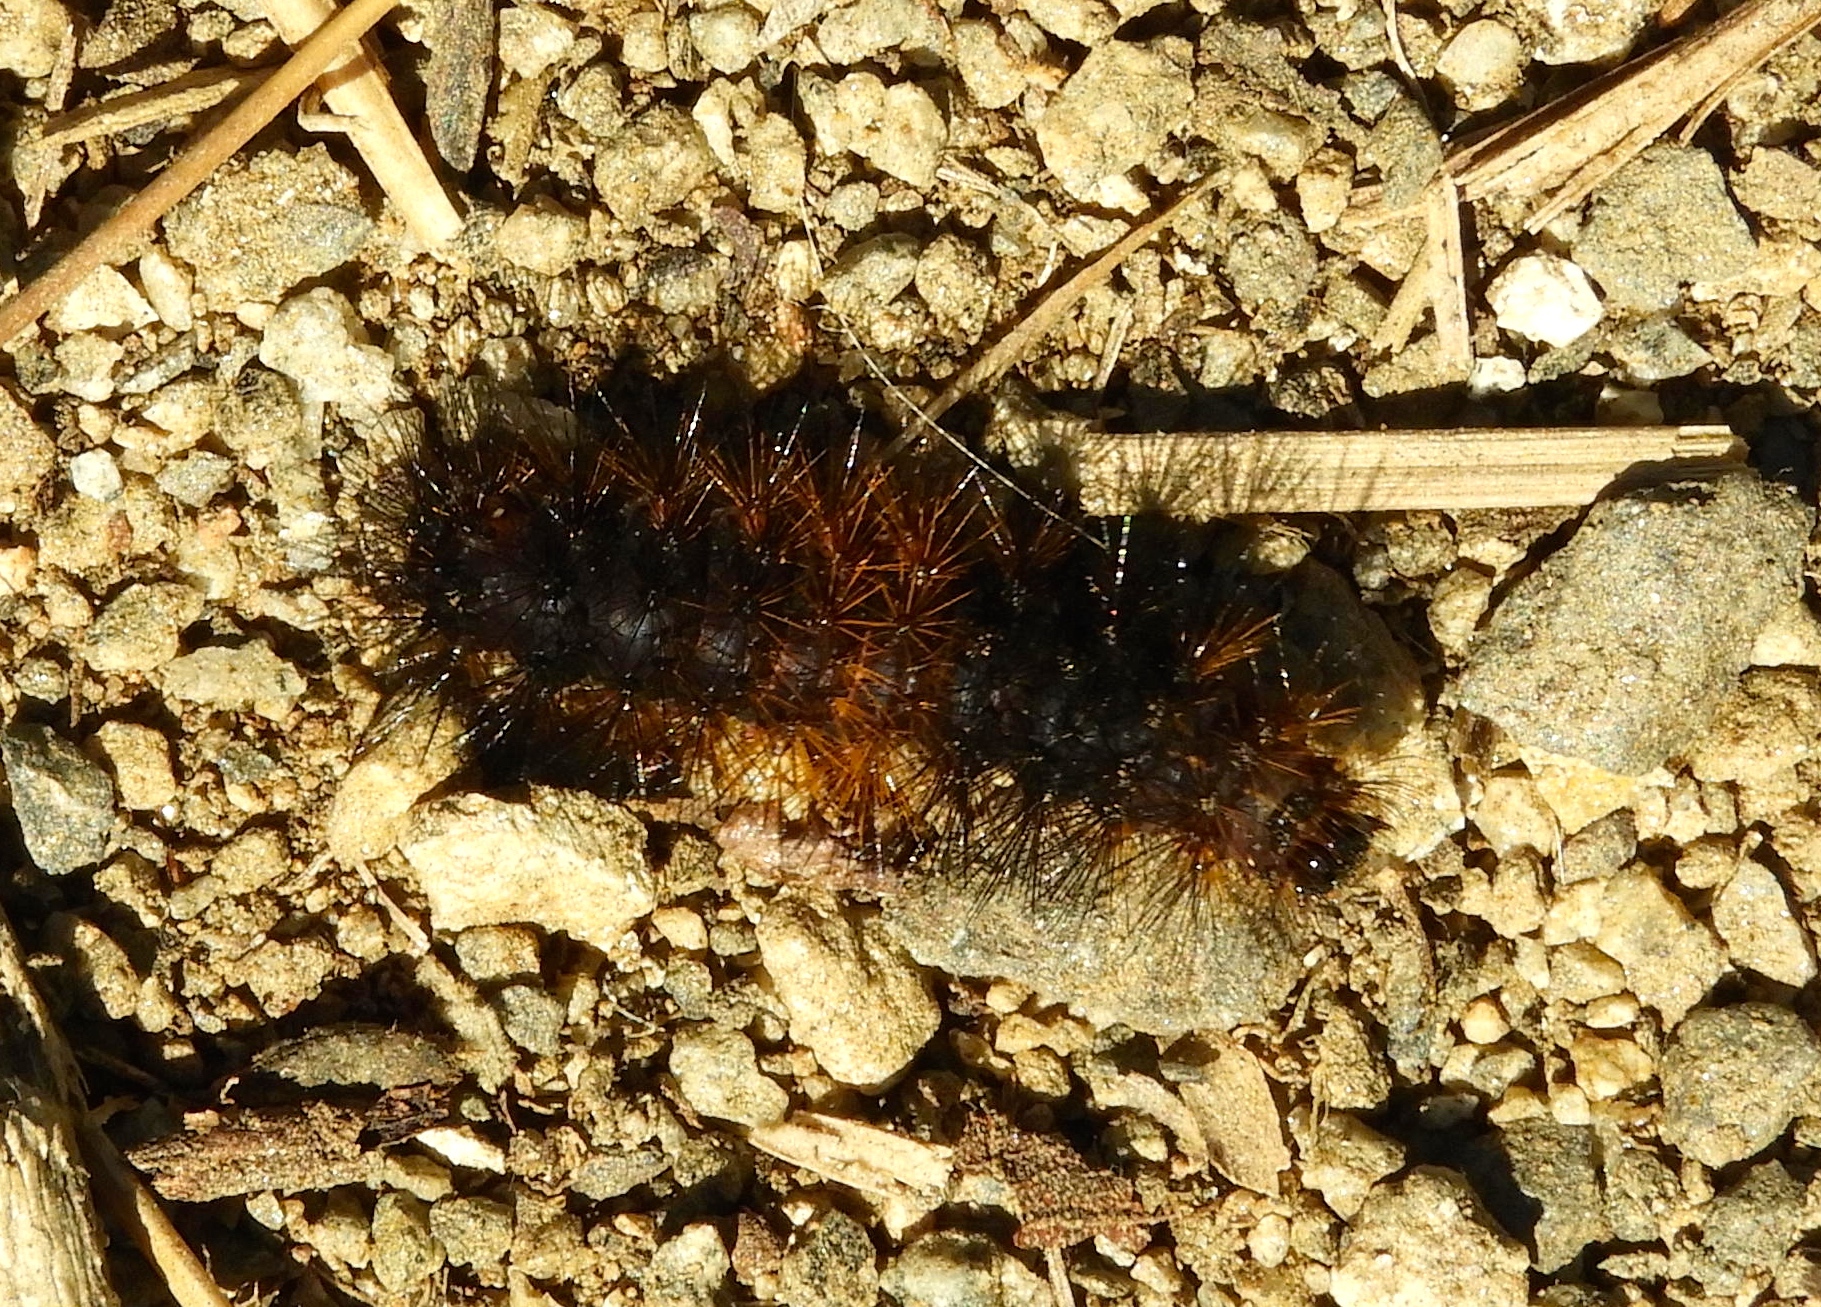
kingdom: Animalia
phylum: Arthropoda
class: Insecta
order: Lepidoptera
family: Erebidae
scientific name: Erebidae
